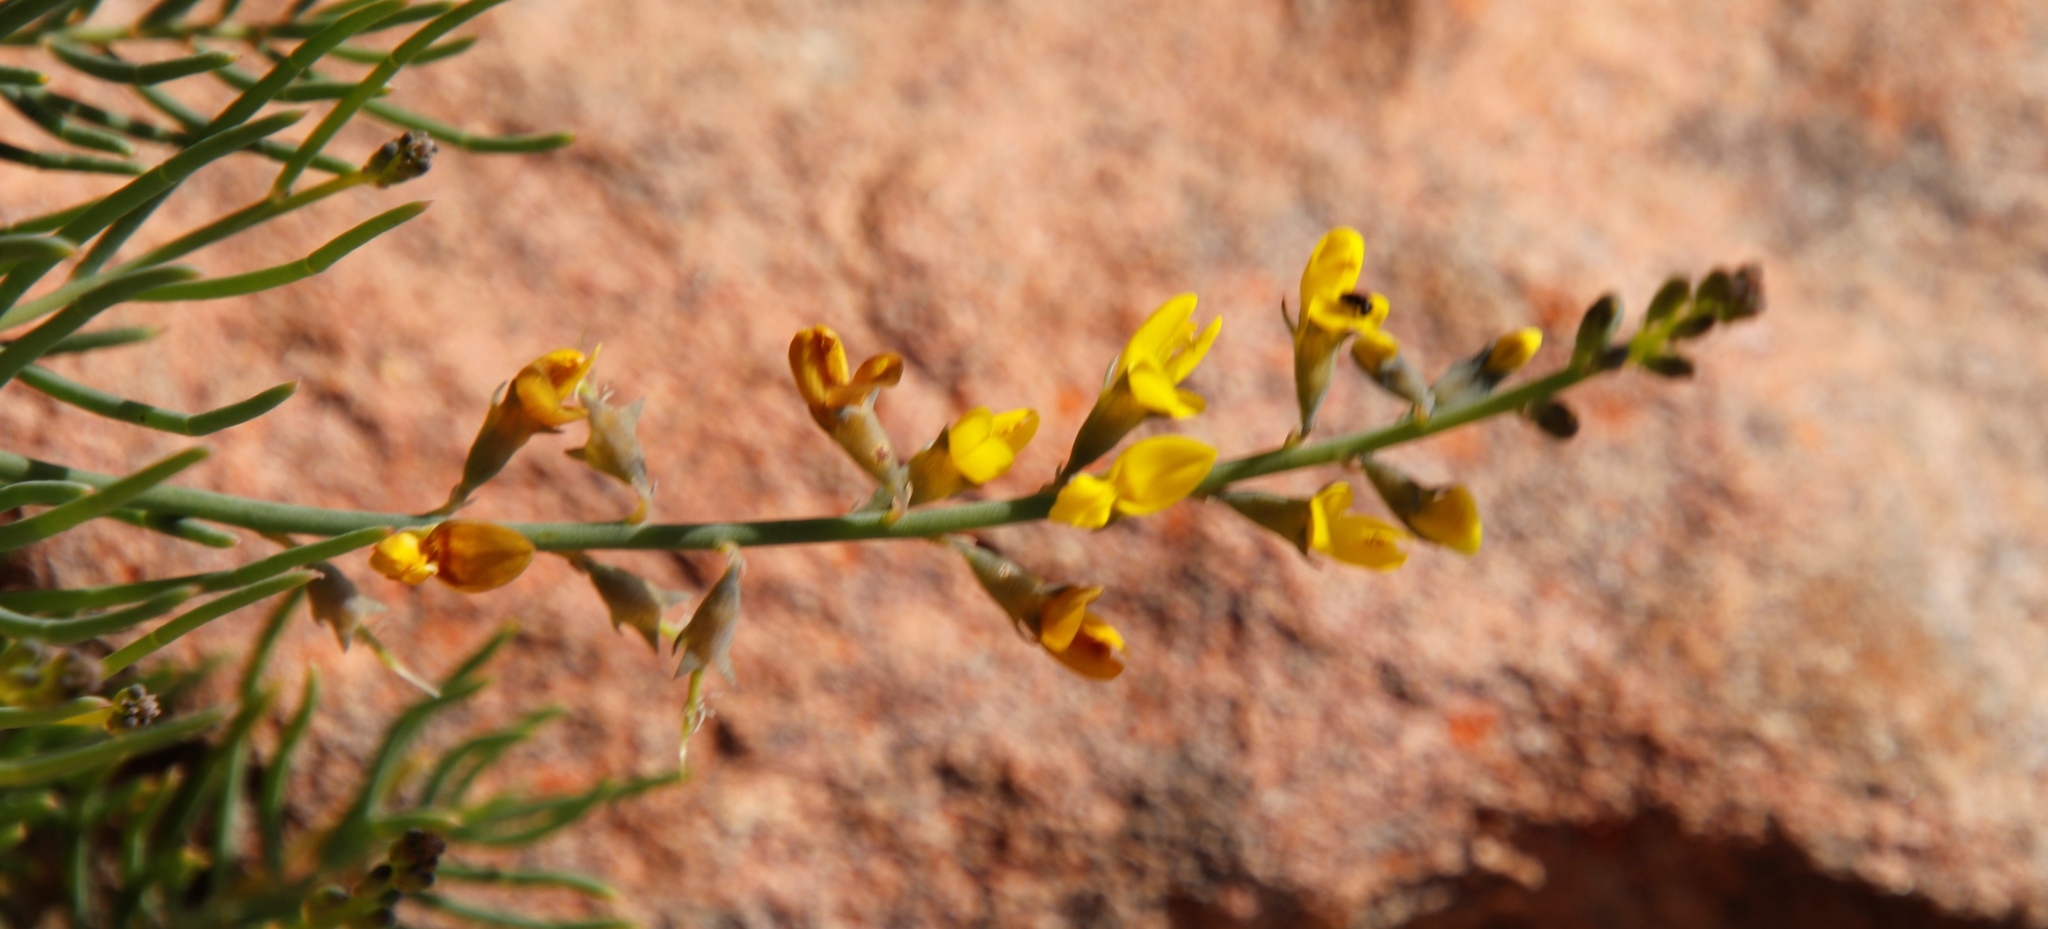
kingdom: Plantae
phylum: Tracheophyta
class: Magnoliopsida
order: Fabales
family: Fabaceae
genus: Lebeckia
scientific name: Lebeckia contaminata
